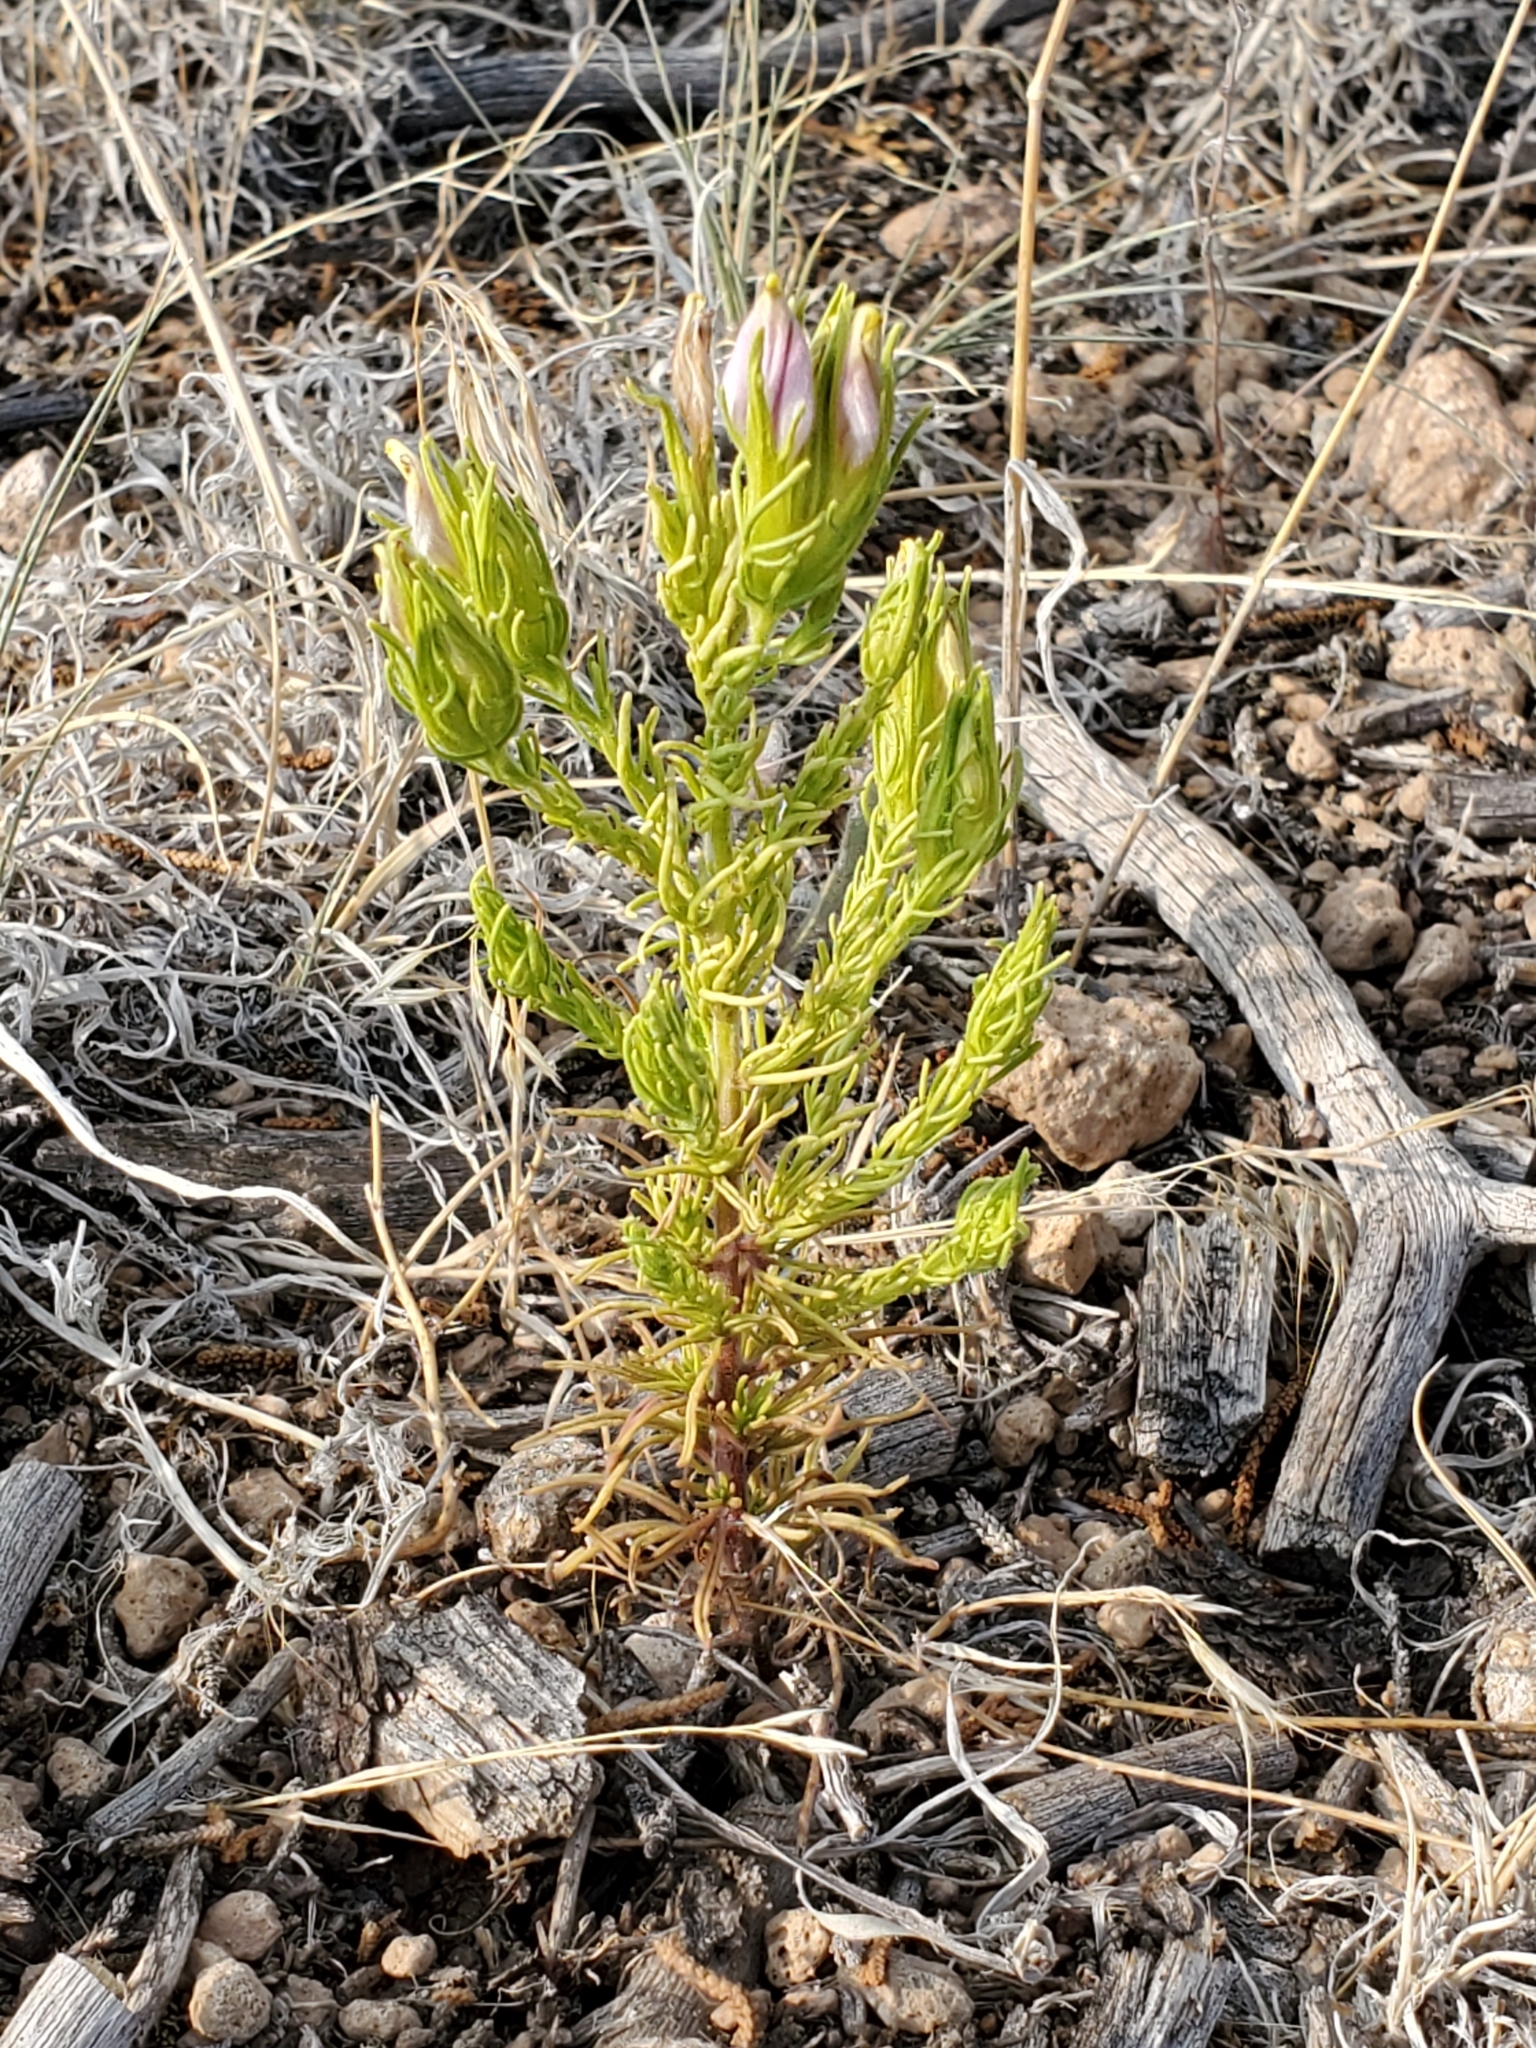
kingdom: Plantae
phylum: Tracheophyta
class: Magnoliopsida
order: Lamiales
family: Orobanchaceae
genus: Cordylanthus
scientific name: Cordylanthus wrightii
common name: Wright's birdsbeak
